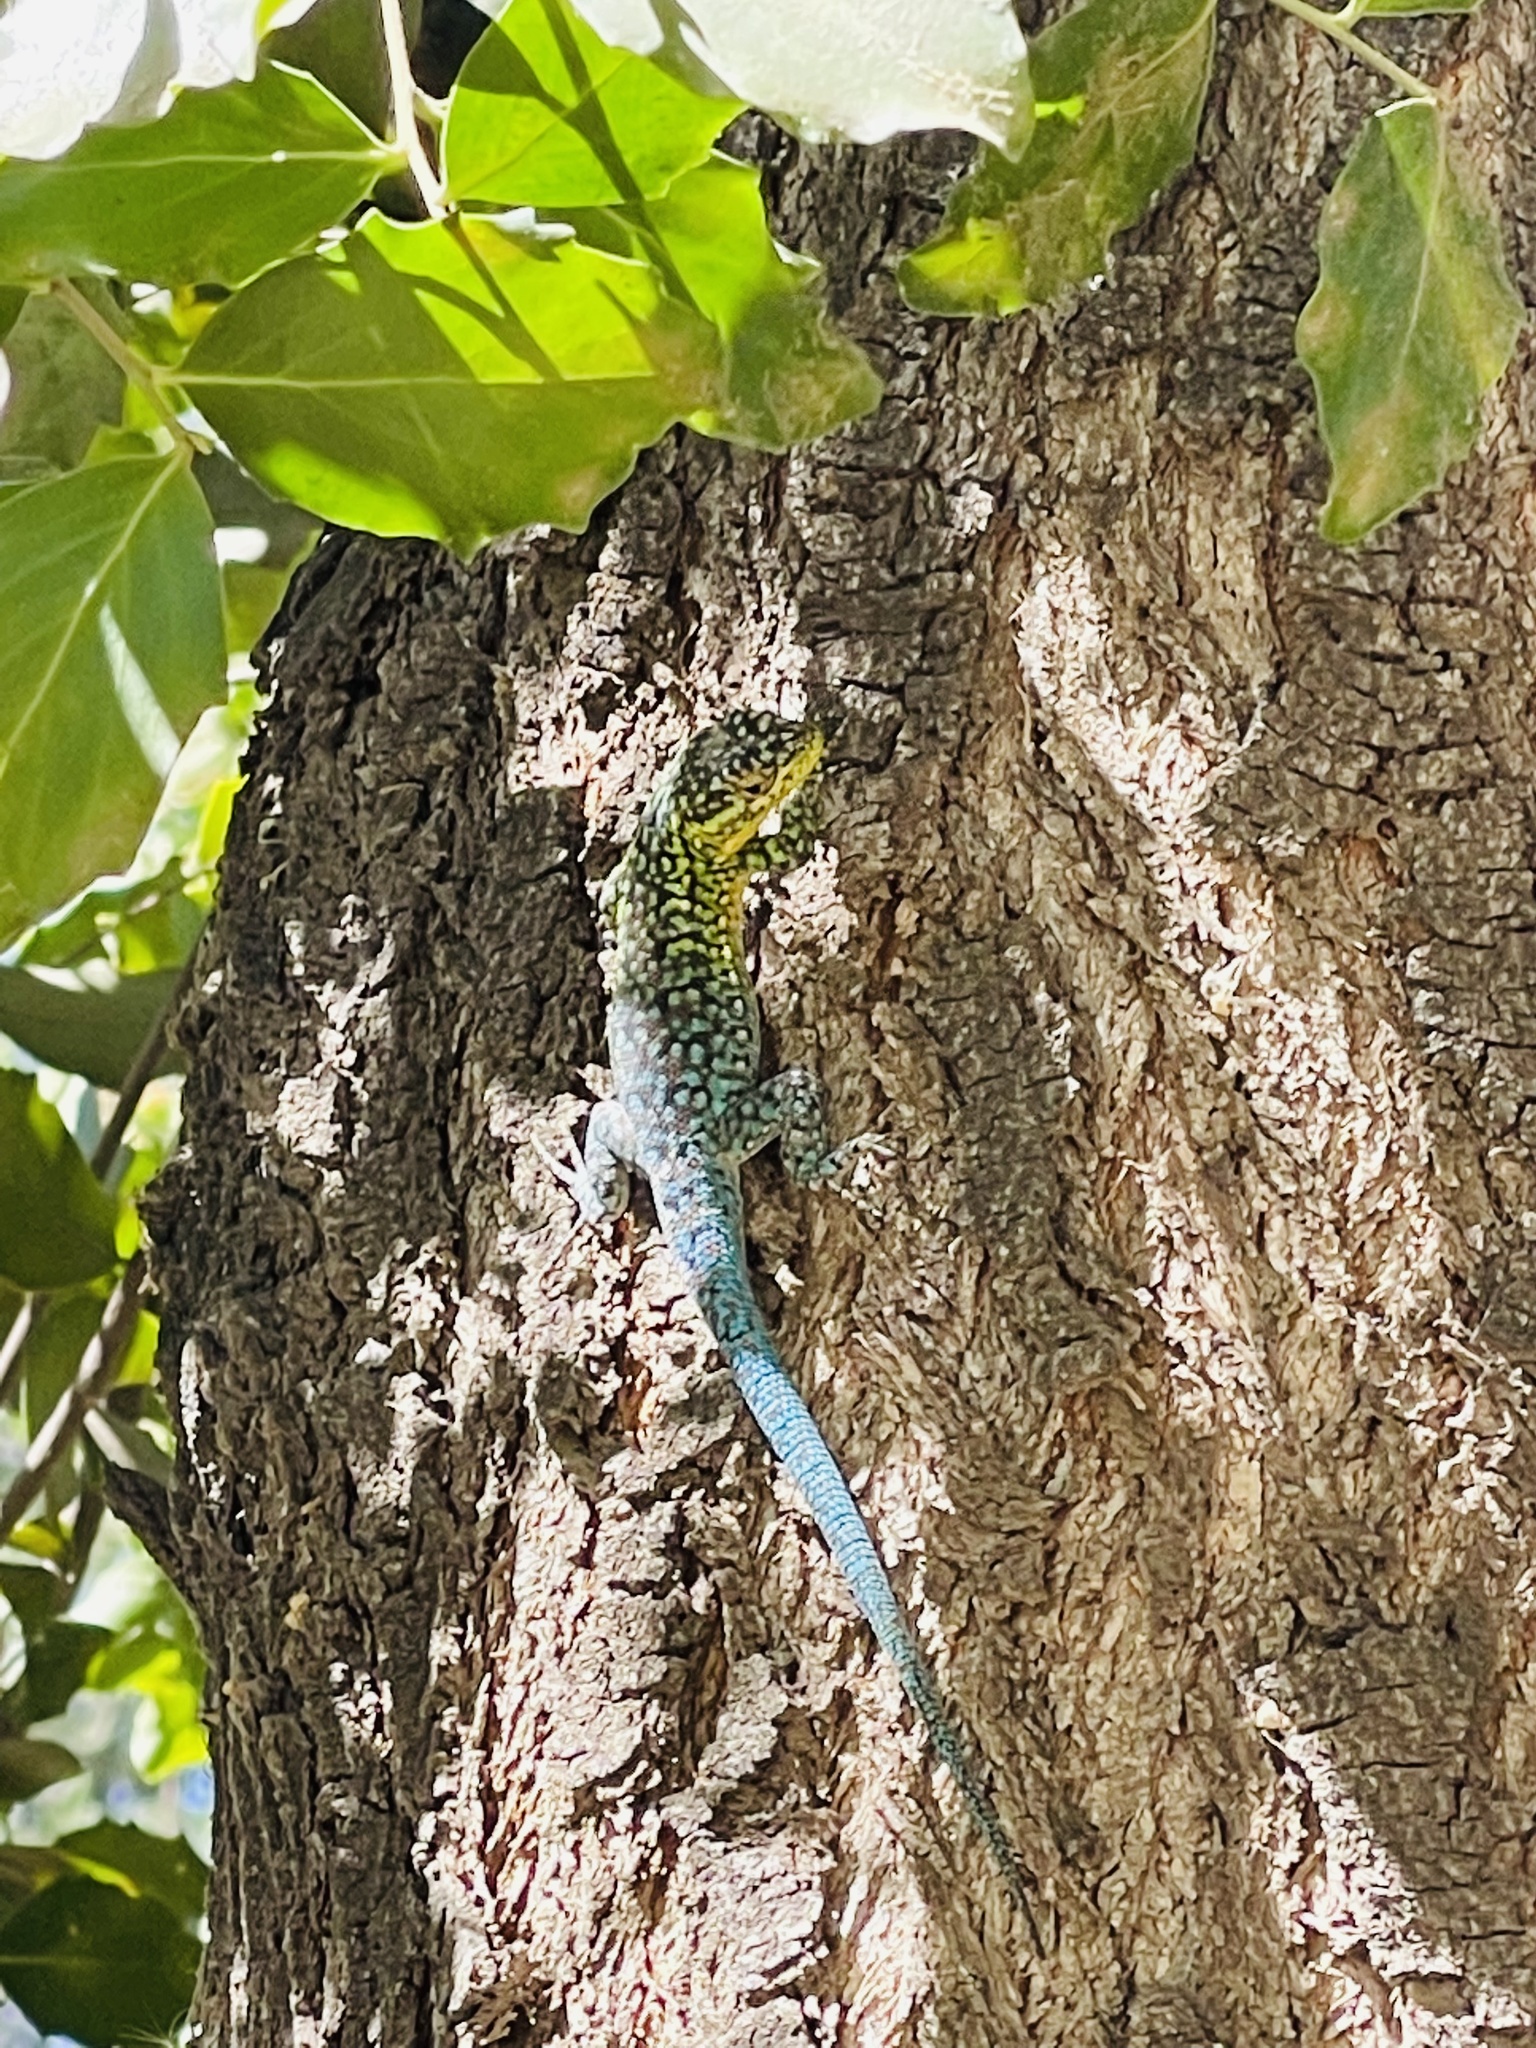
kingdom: Animalia
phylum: Chordata
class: Squamata
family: Liolaemidae
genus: Liolaemus
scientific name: Liolaemus tenuis
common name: Thin tree iguana
